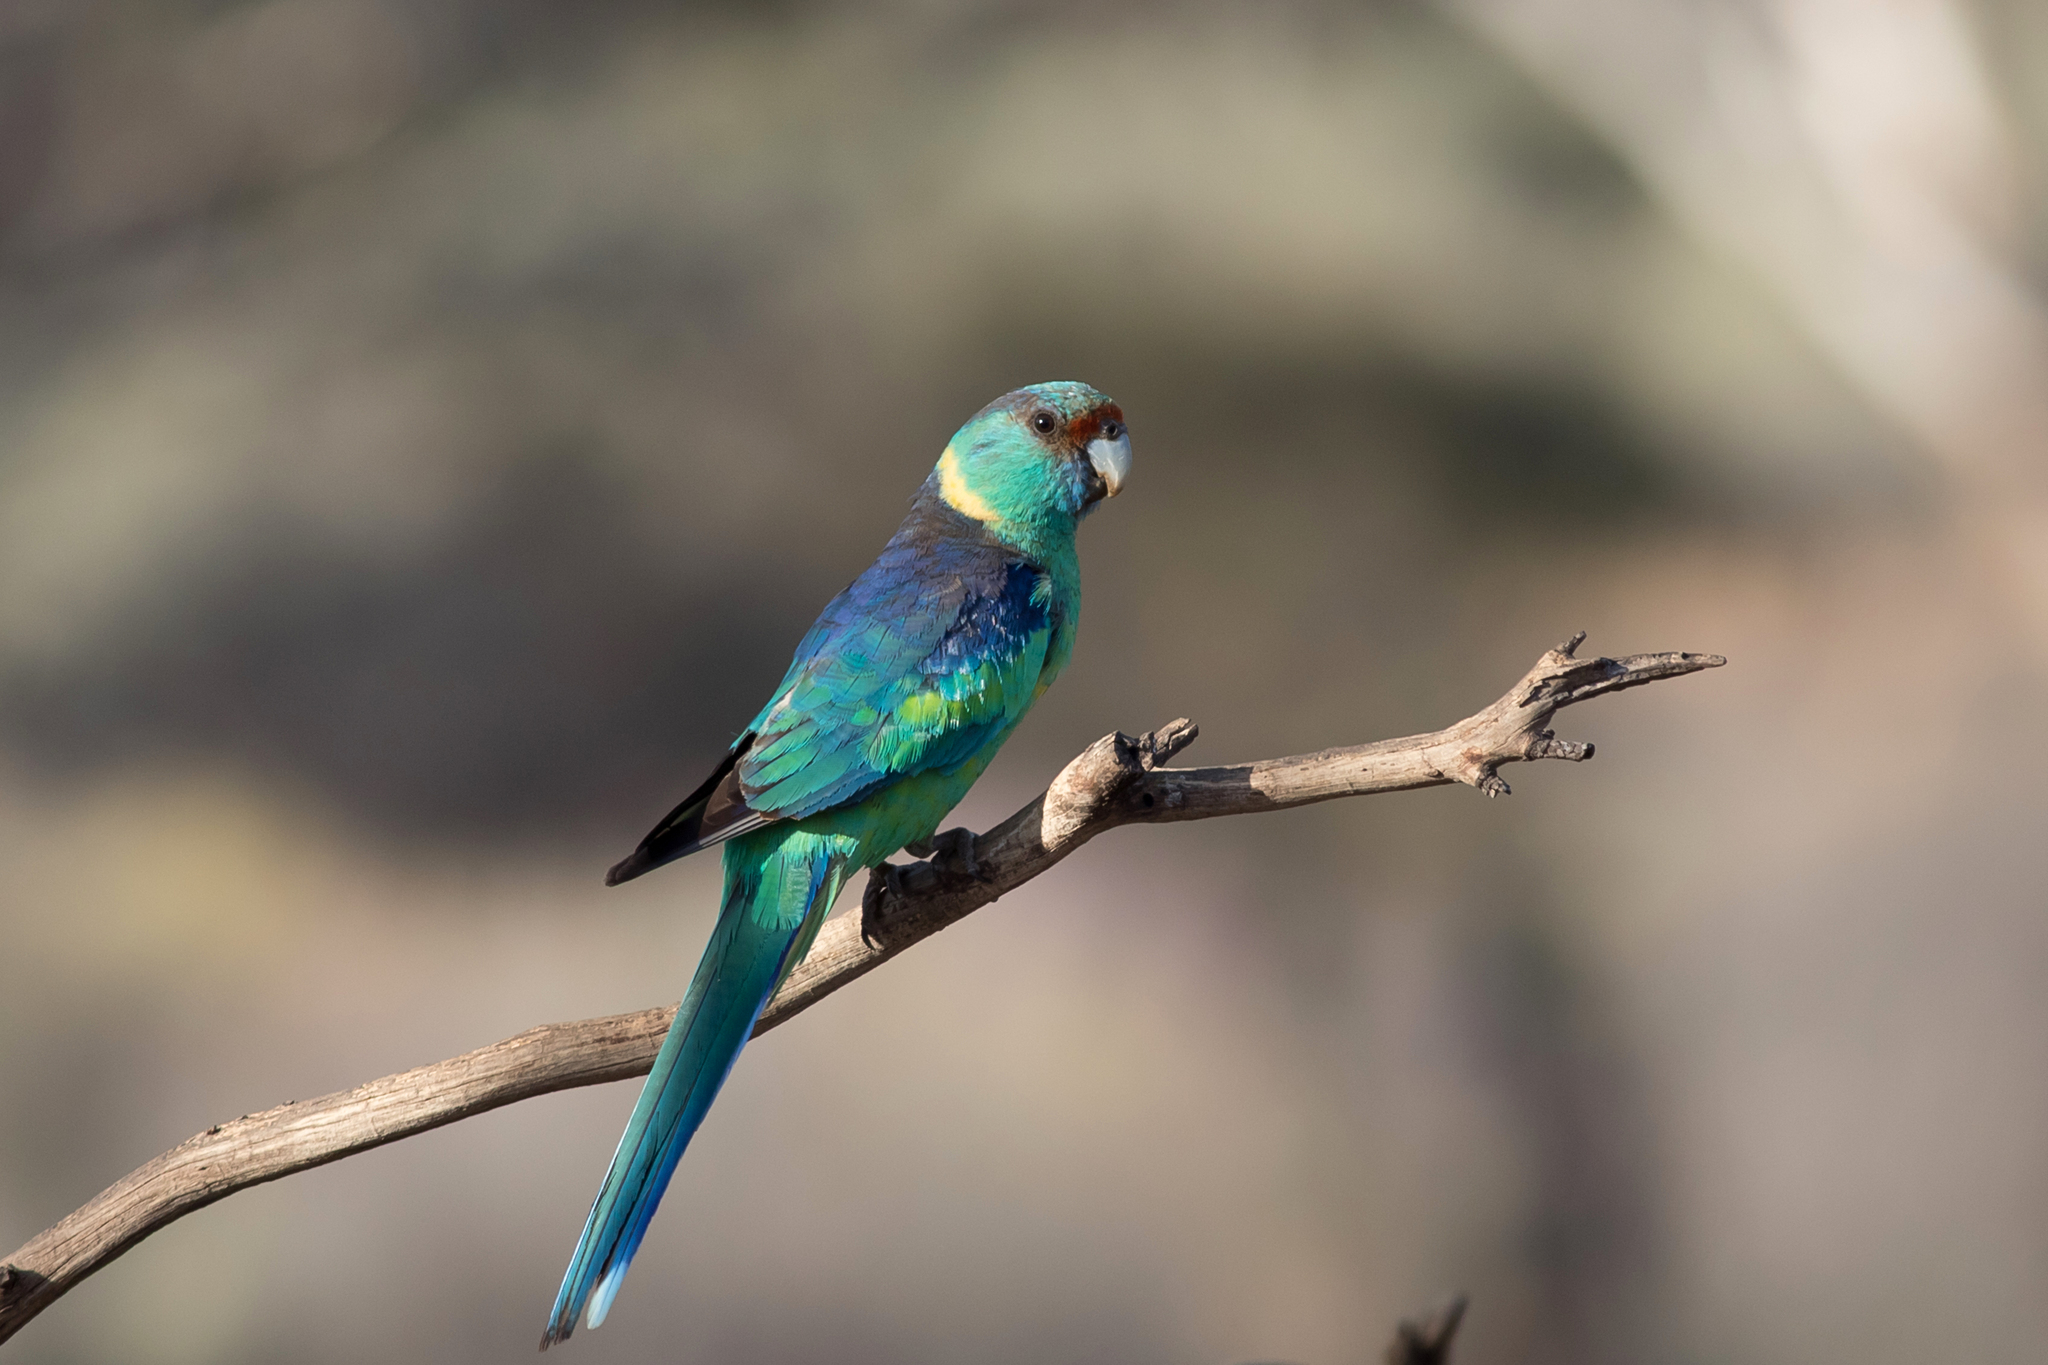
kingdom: Animalia
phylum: Chordata
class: Aves
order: Psittaciformes
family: Psittacidae
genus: Barnardius
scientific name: Barnardius zonarius
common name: Australian ringneck
